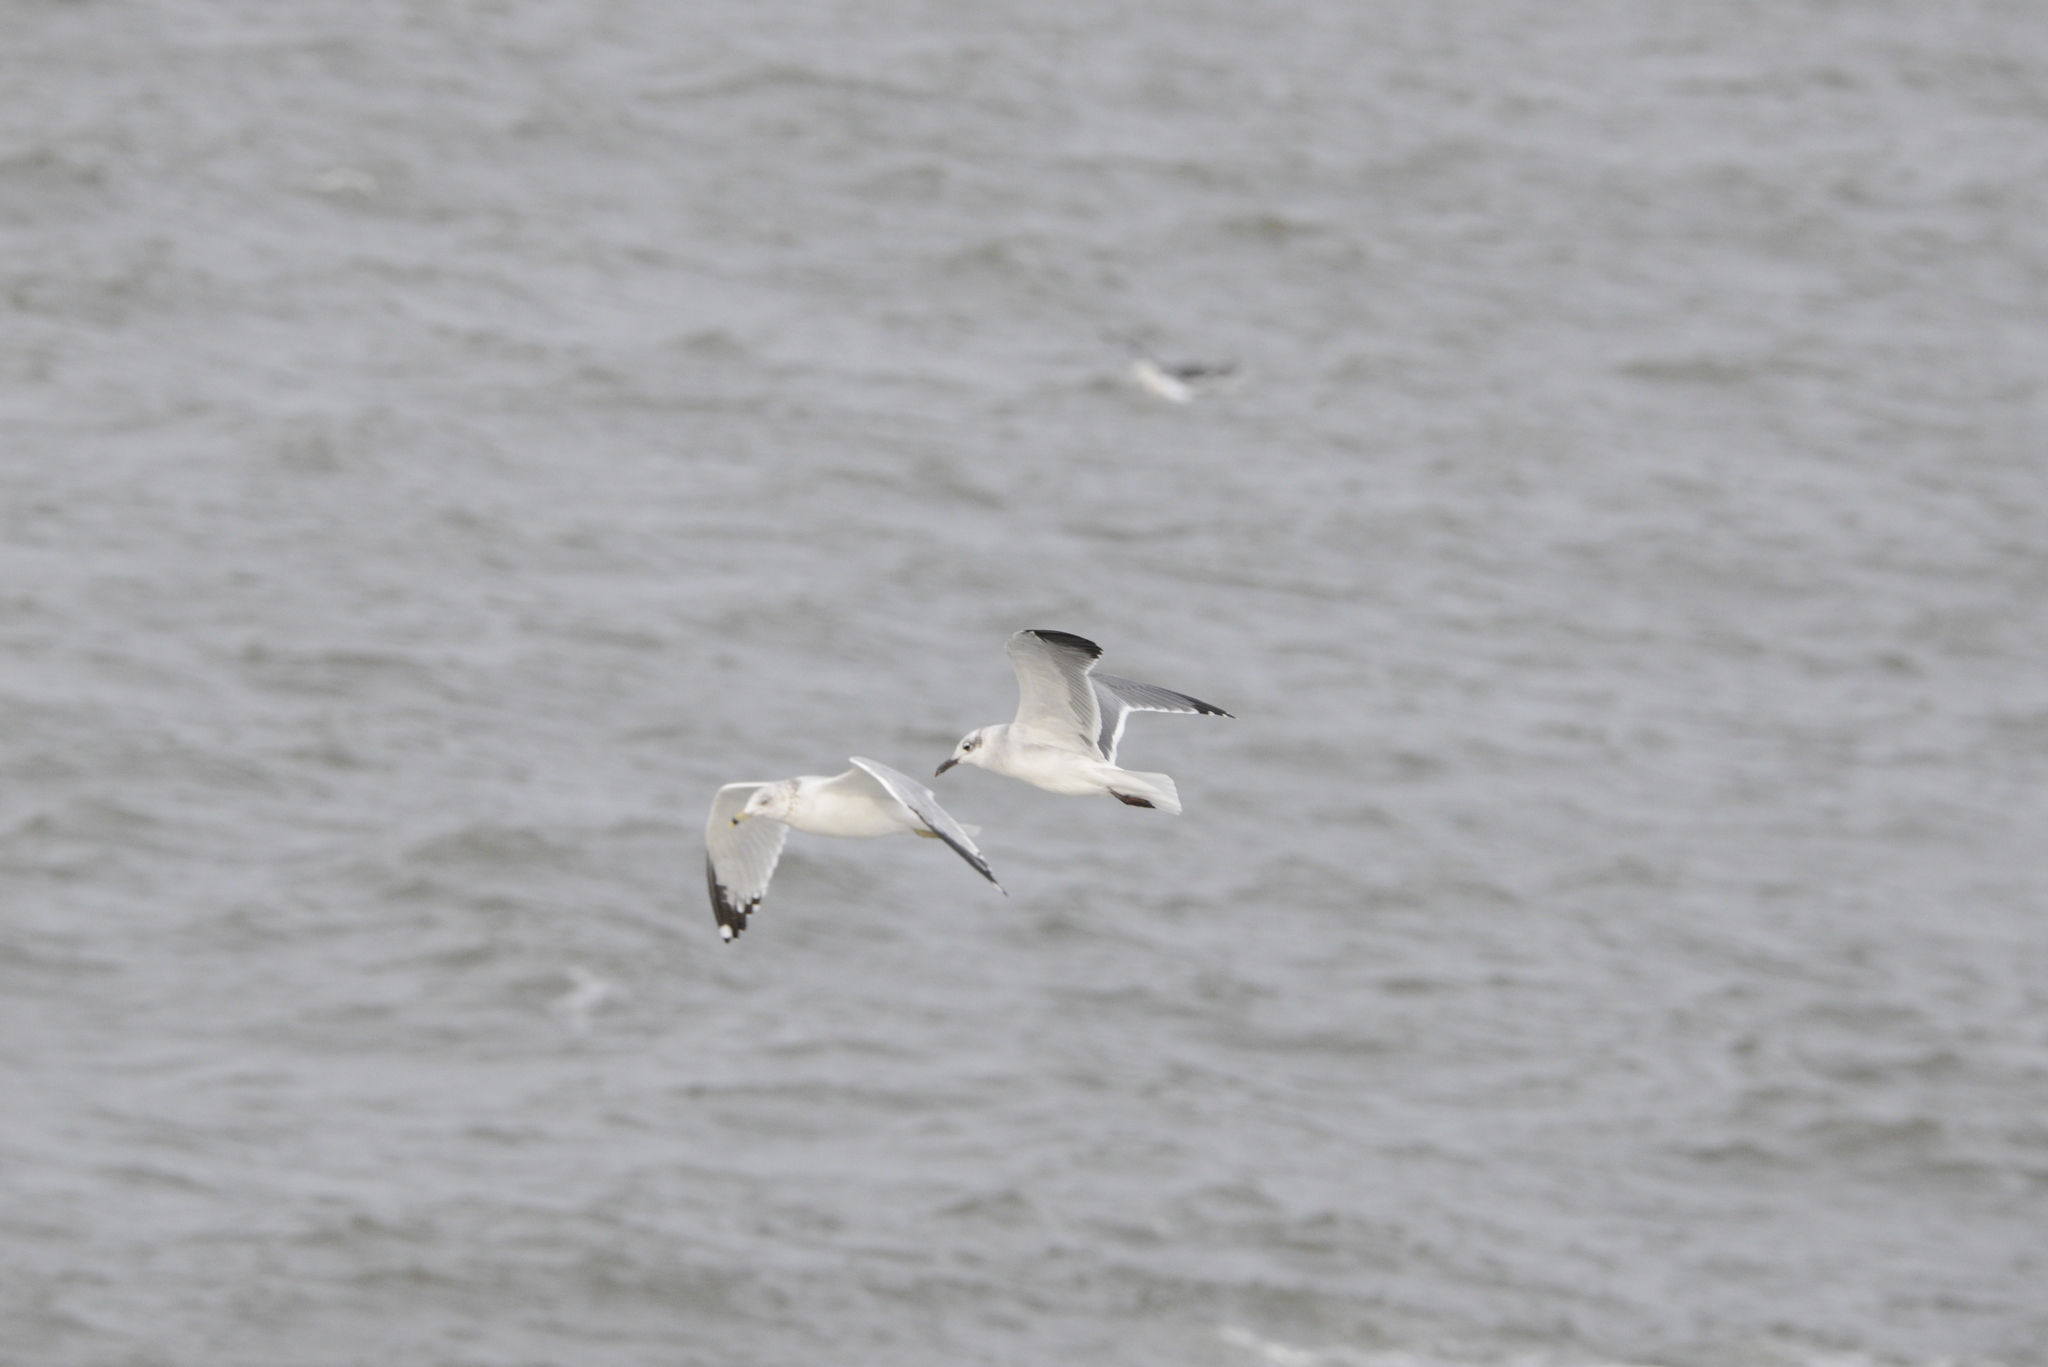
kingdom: Animalia
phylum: Chordata
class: Aves
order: Charadriiformes
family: Laridae
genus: Leucophaeus
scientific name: Leucophaeus atricilla
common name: Laughing gull
